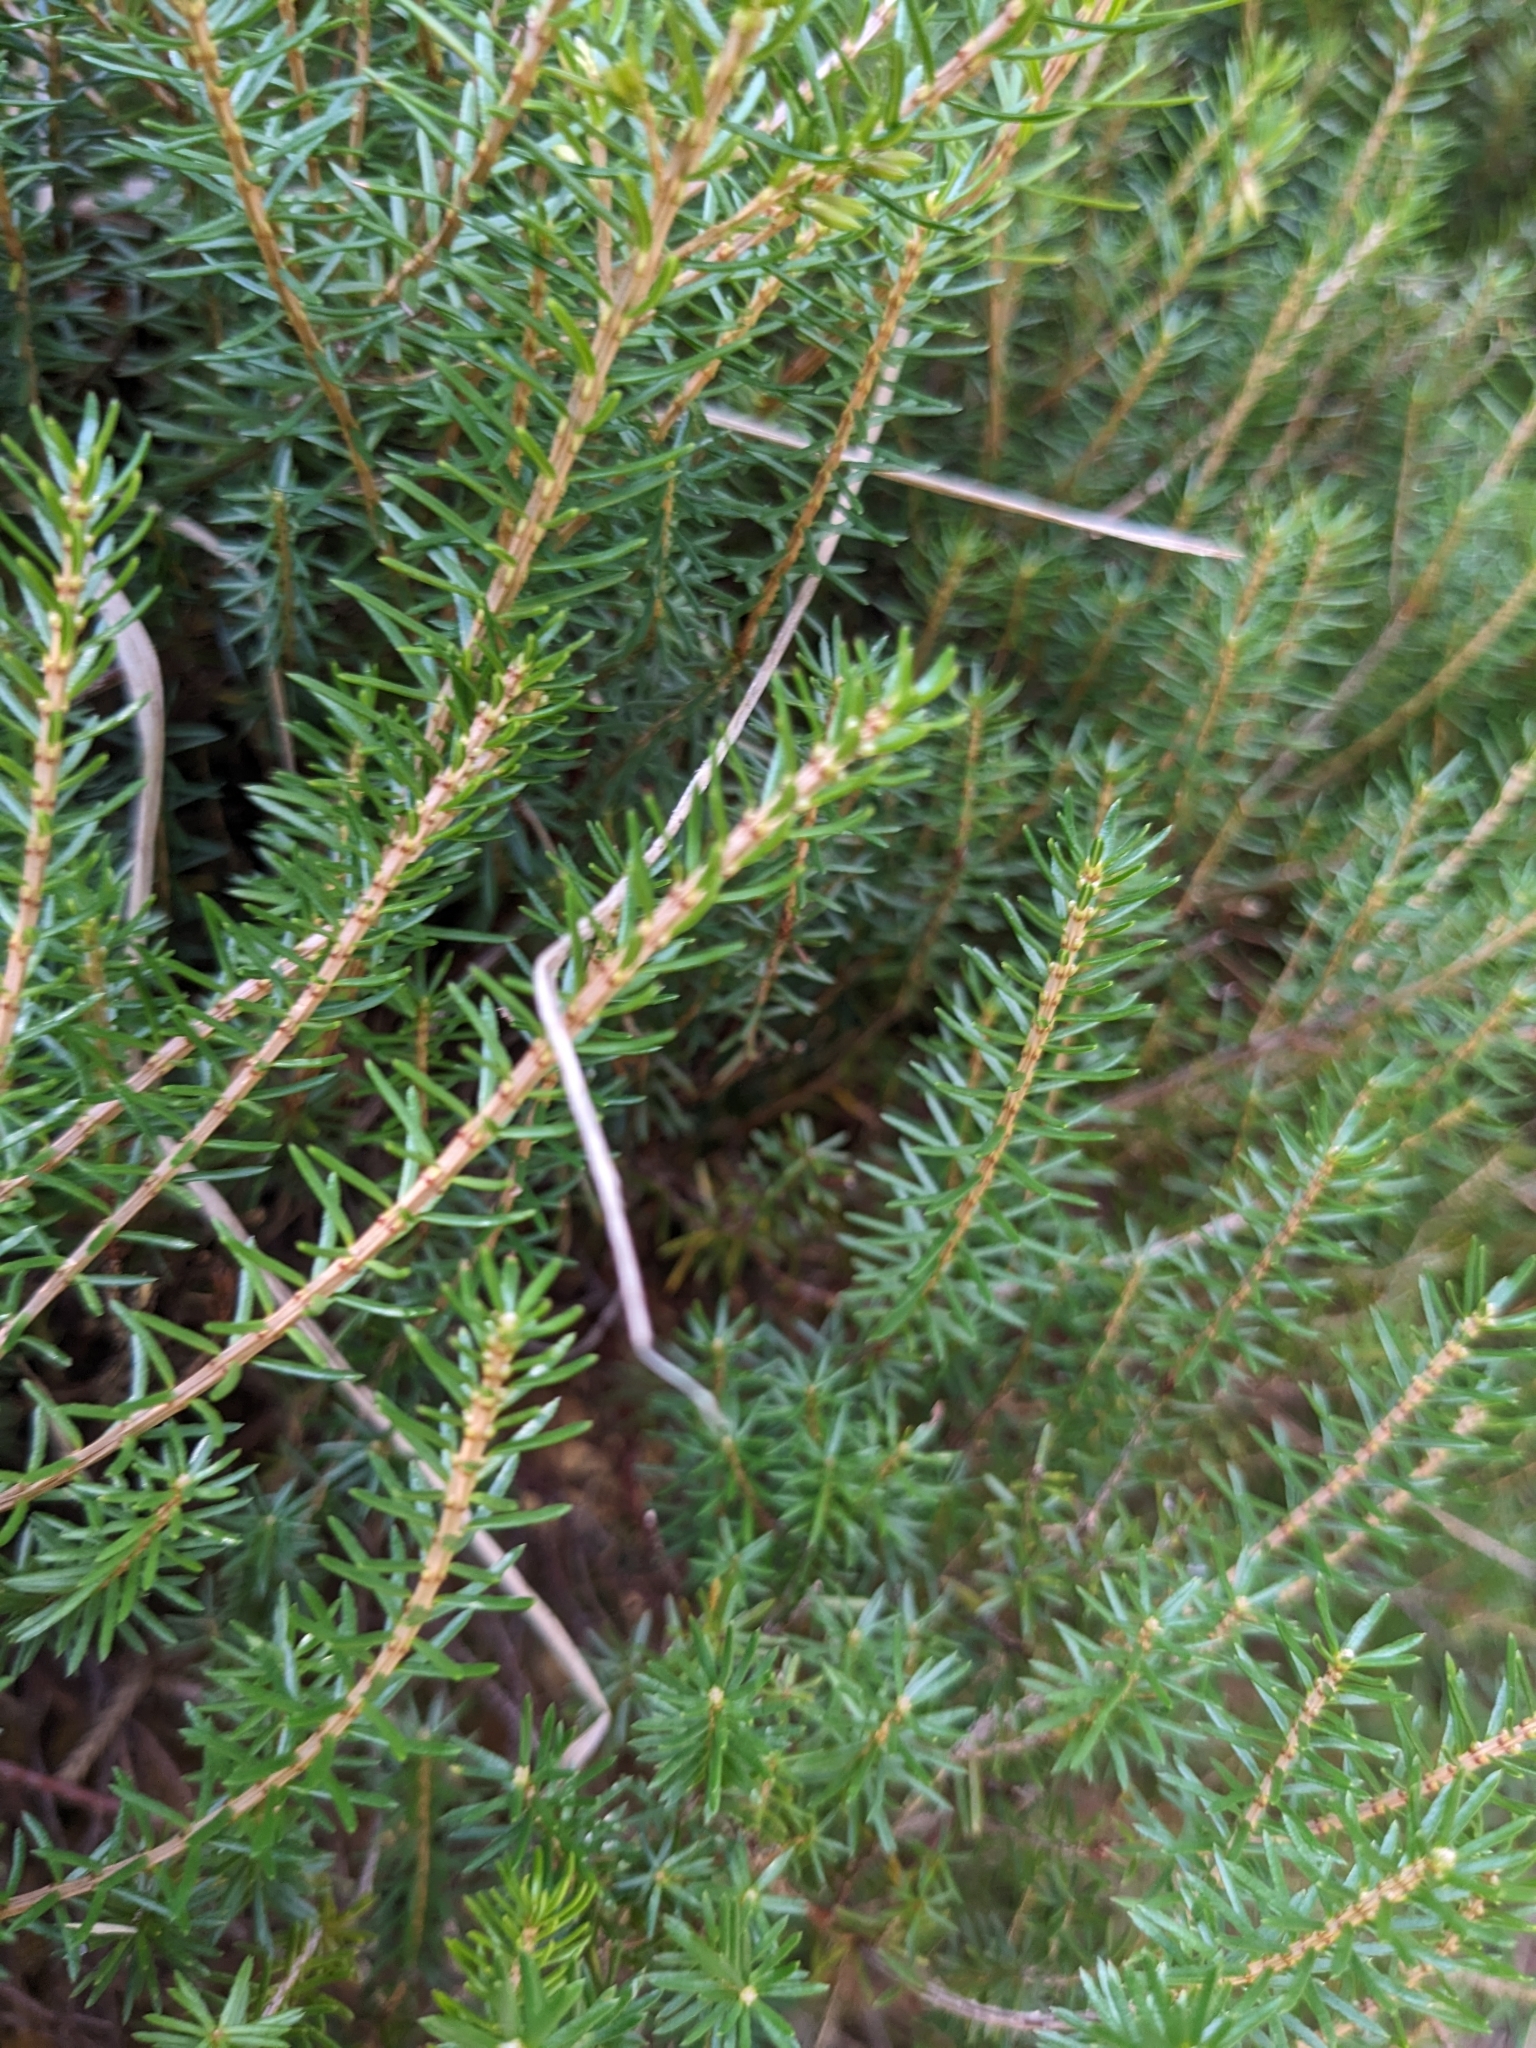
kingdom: Plantae
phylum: Tracheophyta
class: Magnoliopsida
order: Ericales
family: Ericaceae
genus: Erica
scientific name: Erica carnea
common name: Winter heath
